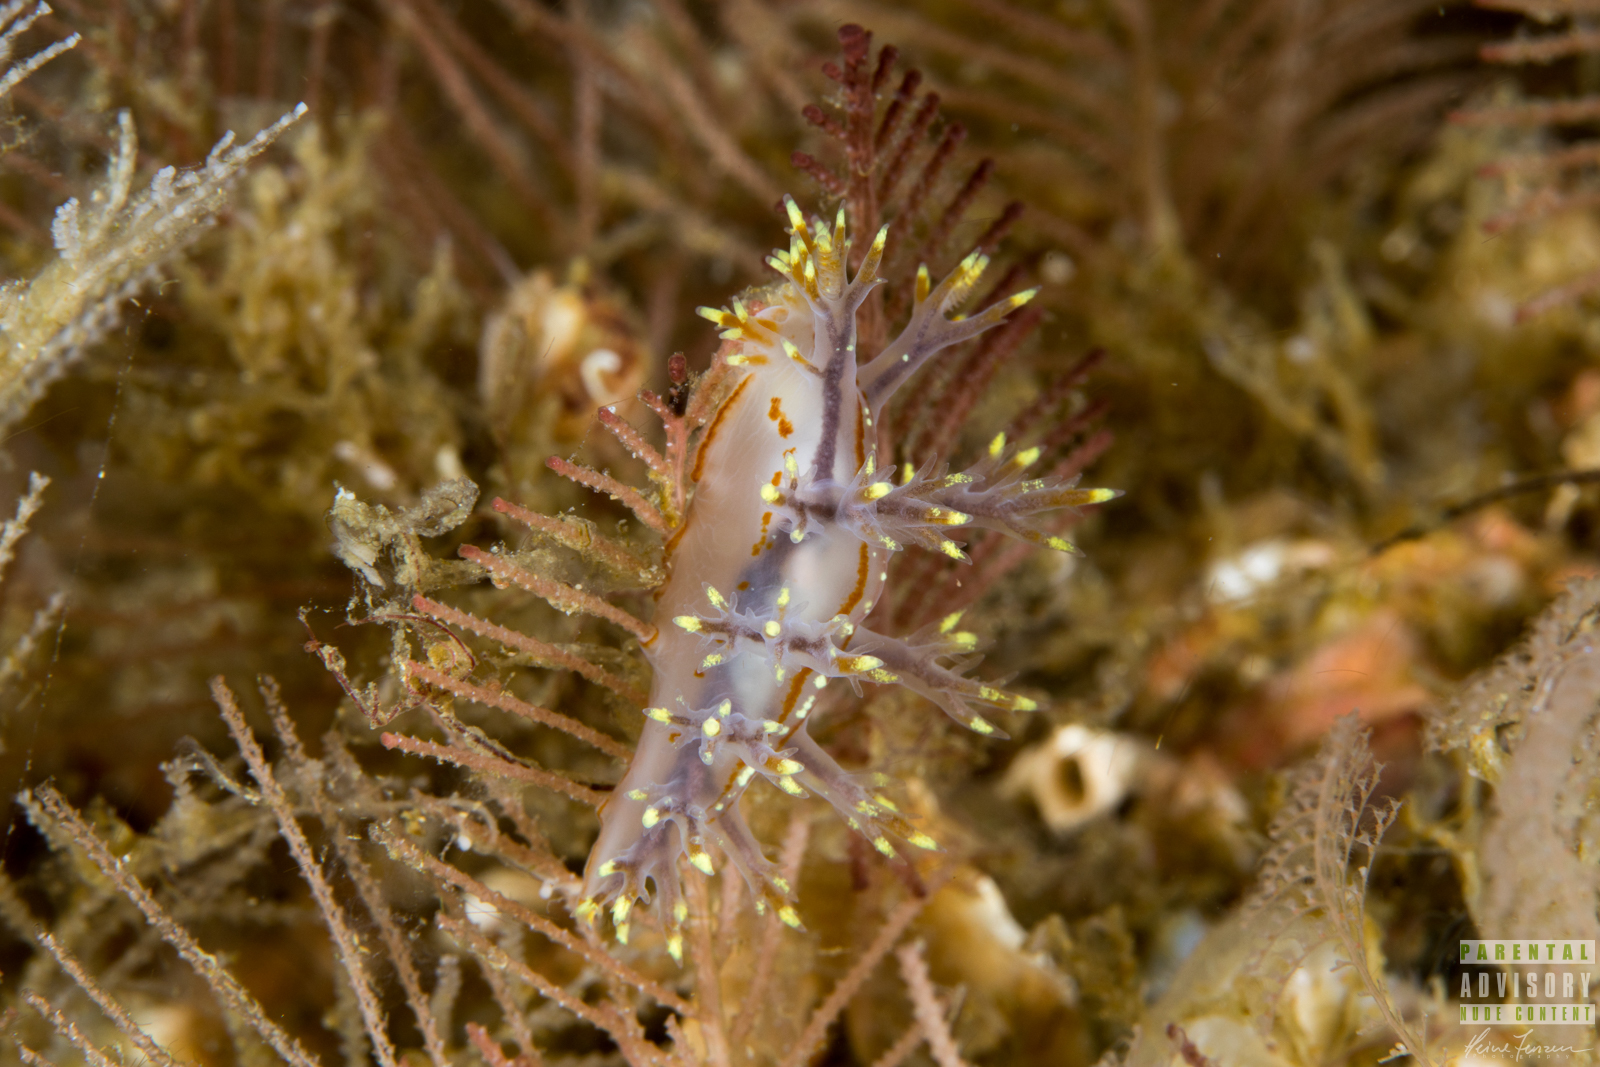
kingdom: Animalia
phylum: Mollusca
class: Gastropoda
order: Nudibranchia
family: Dendronotidae
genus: Dendronotus
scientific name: Dendronotus yrjargul
